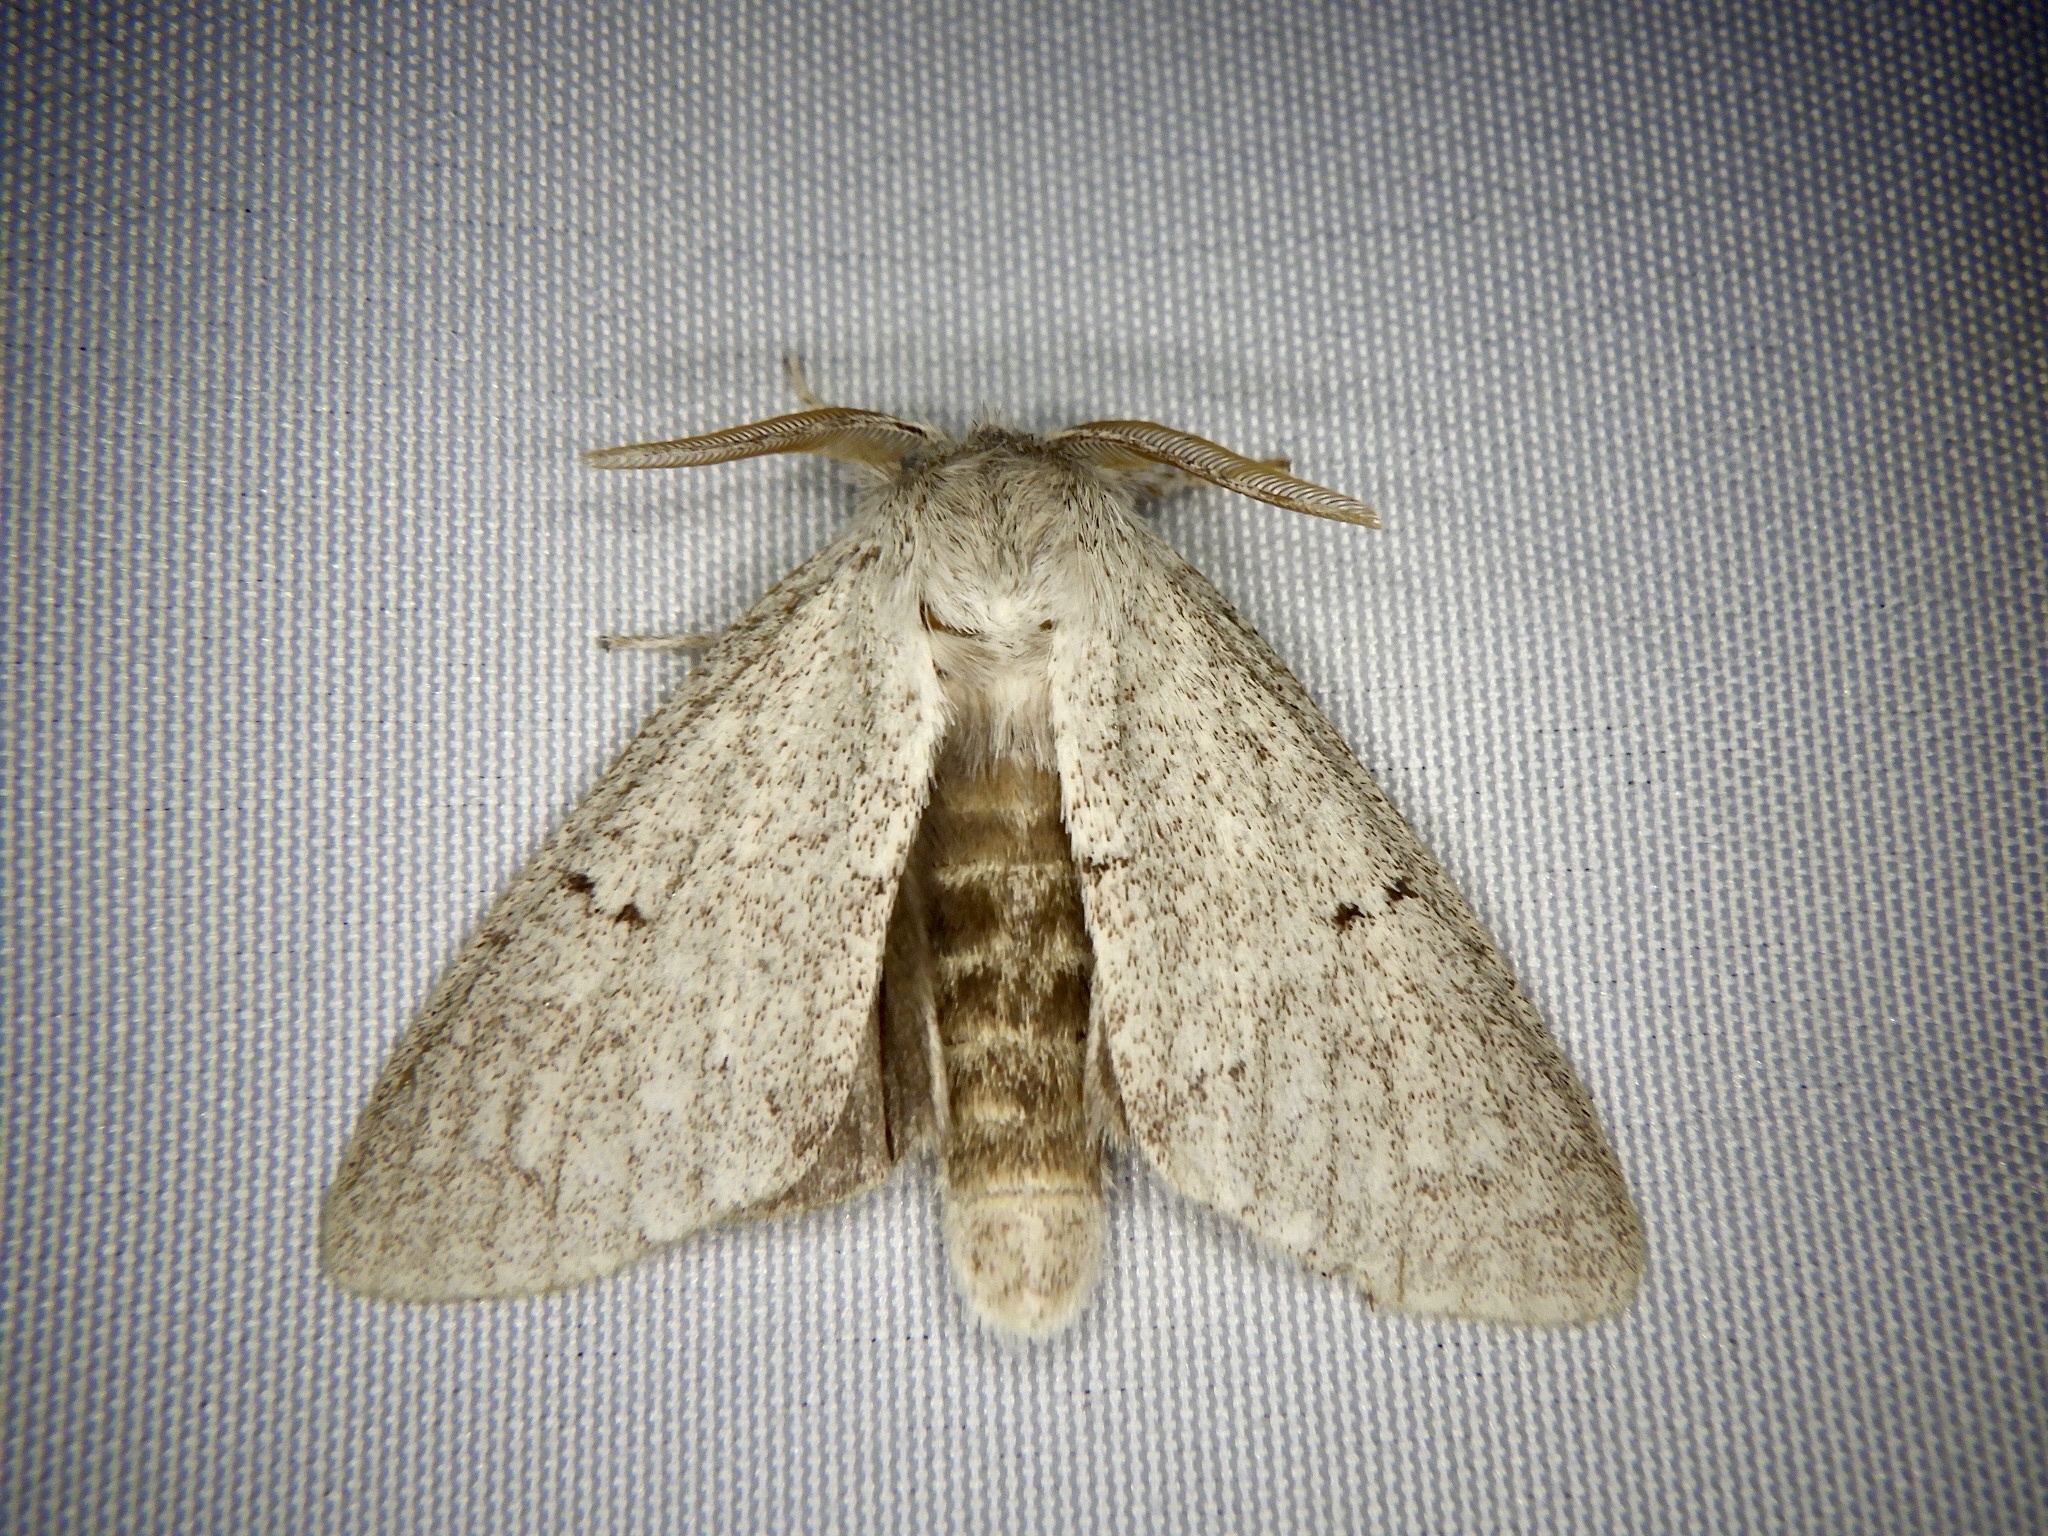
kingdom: Animalia
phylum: Arthropoda
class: Insecta
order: Lepidoptera
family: Notodontidae
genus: Cnethodonta
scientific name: Cnethodonta grisescens
